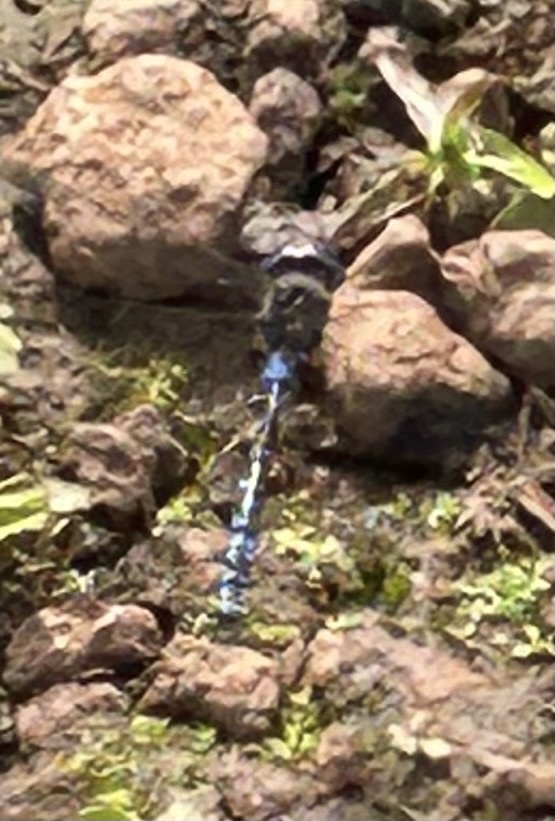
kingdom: Animalia
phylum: Arthropoda
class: Insecta
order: Odonata
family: Aeshnidae
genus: Rhionaeschna
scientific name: Rhionaeschna galapagoensis
